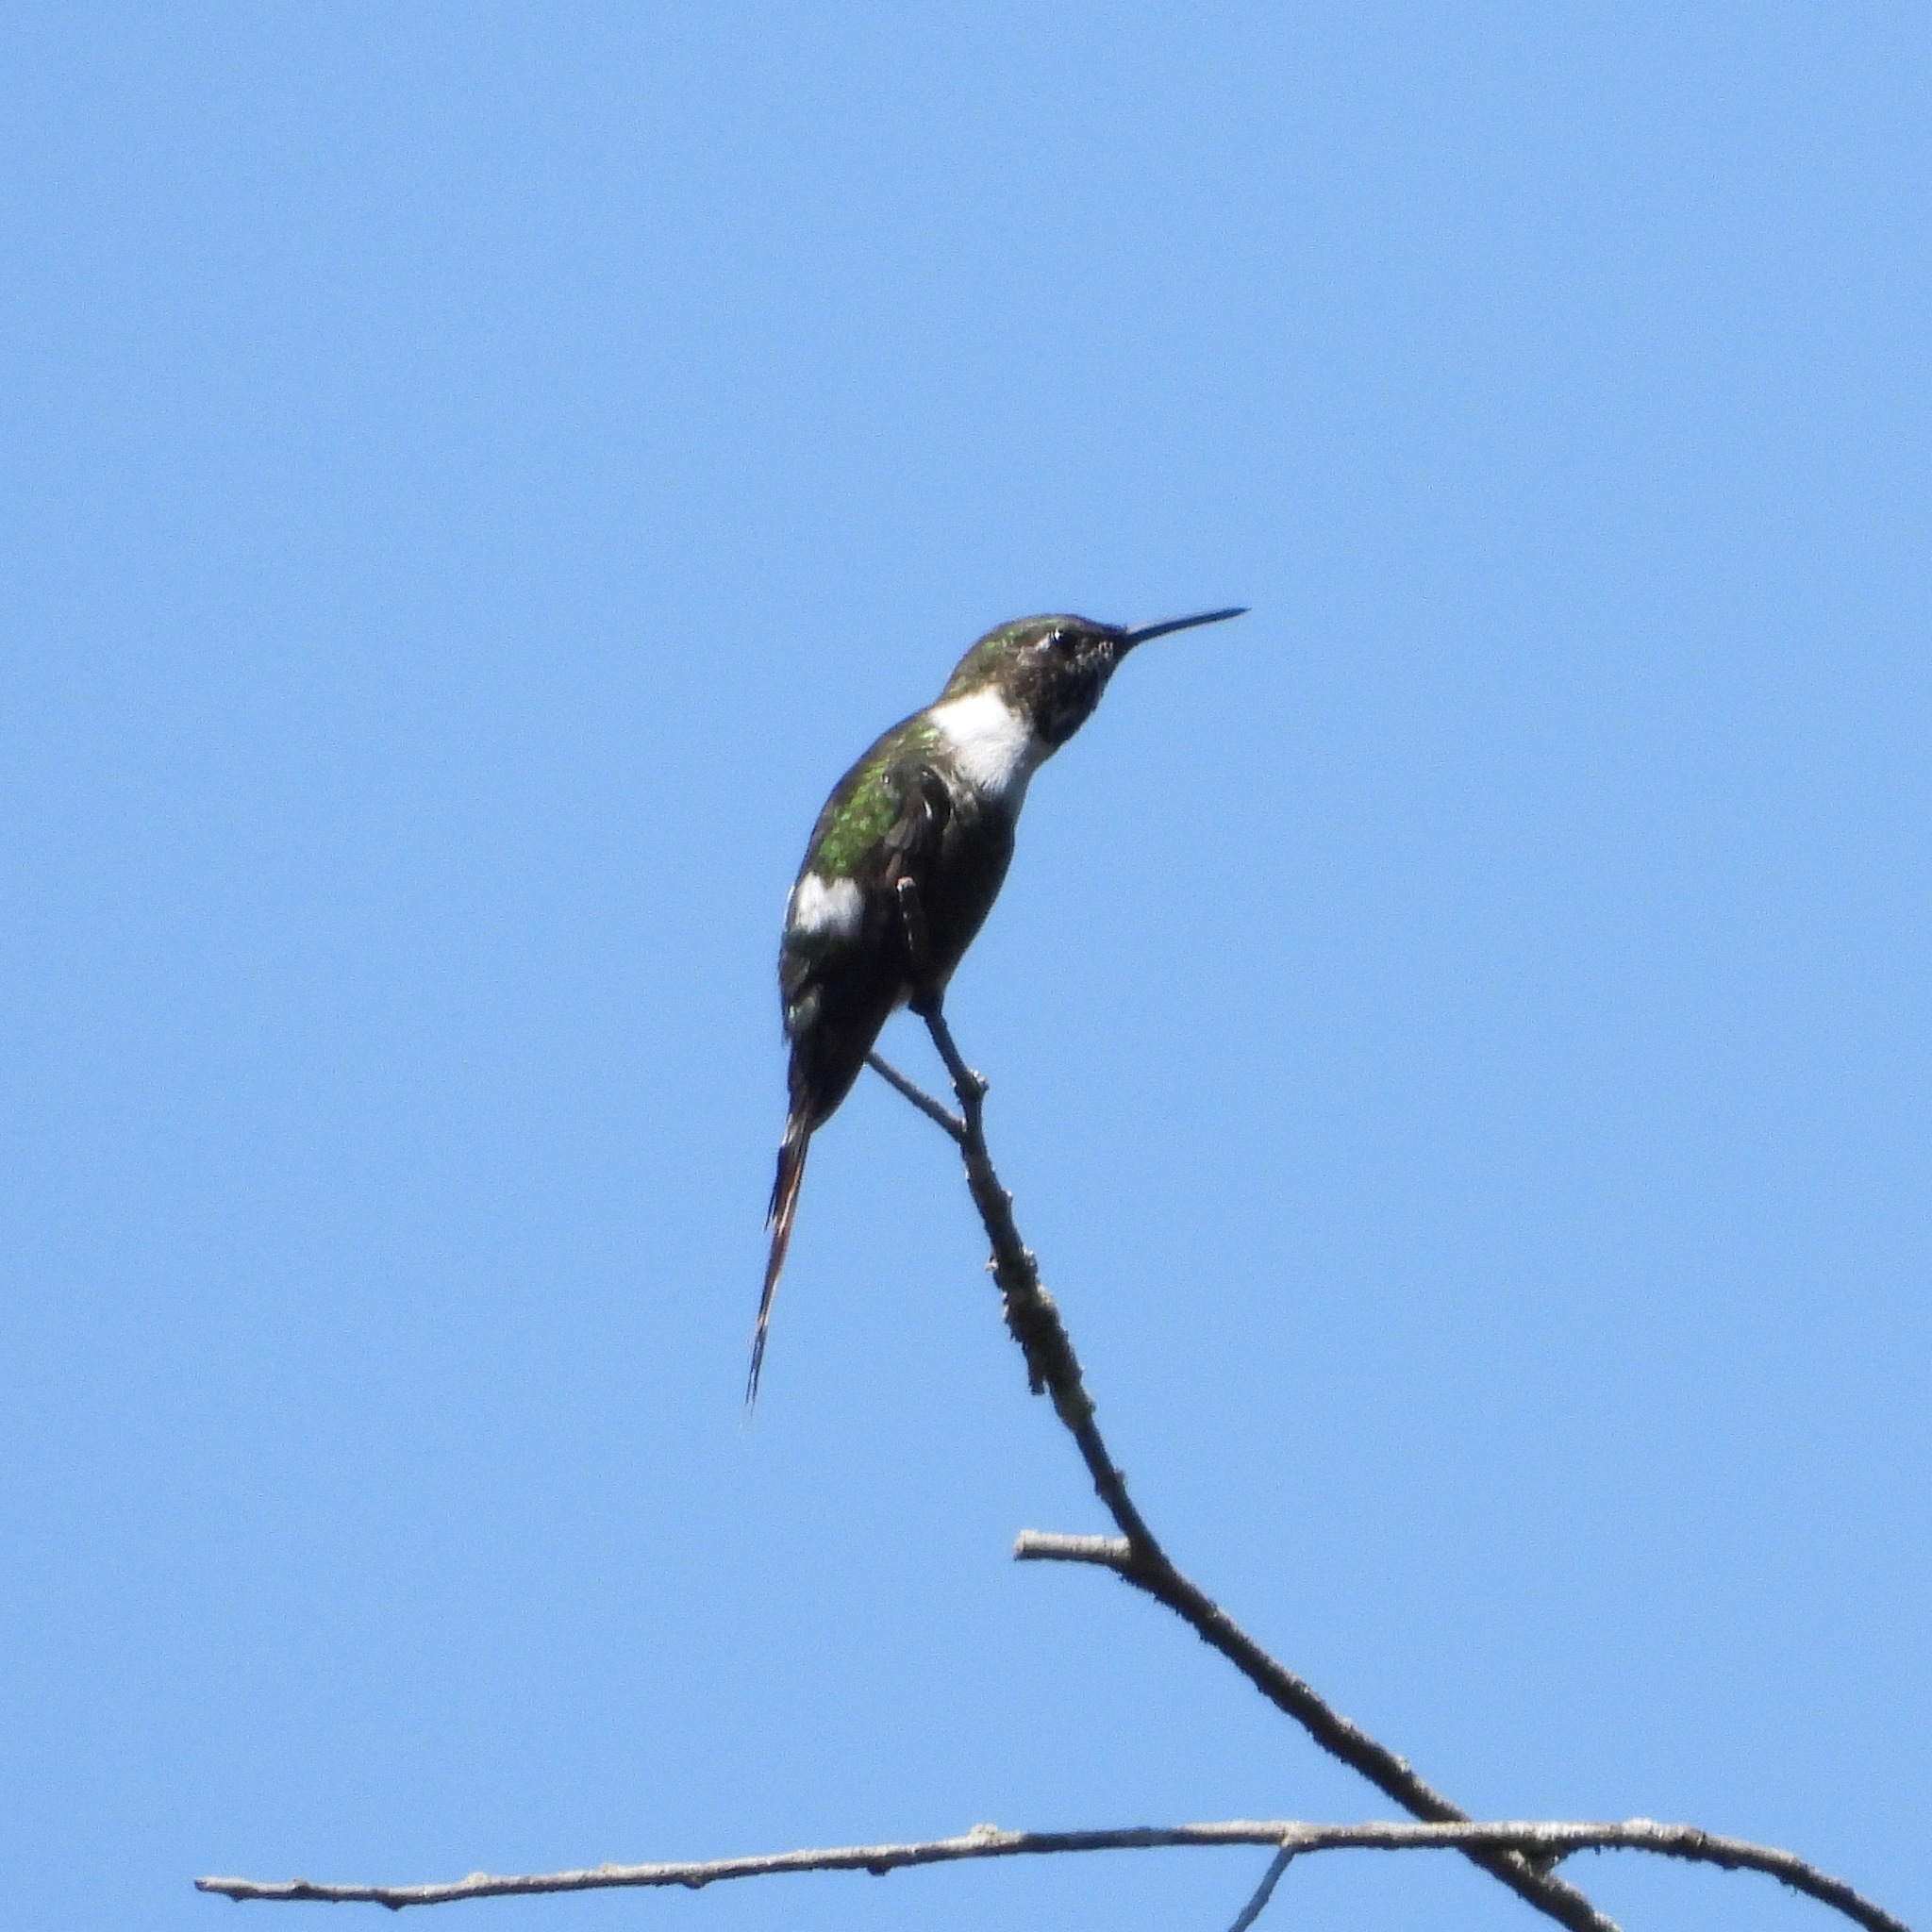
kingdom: Animalia
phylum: Chordata
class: Aves
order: Apodiformes
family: Trochilidae
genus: Tilmatura
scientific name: Tilmatura dupontii
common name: Sparkling-tailed woodstar
